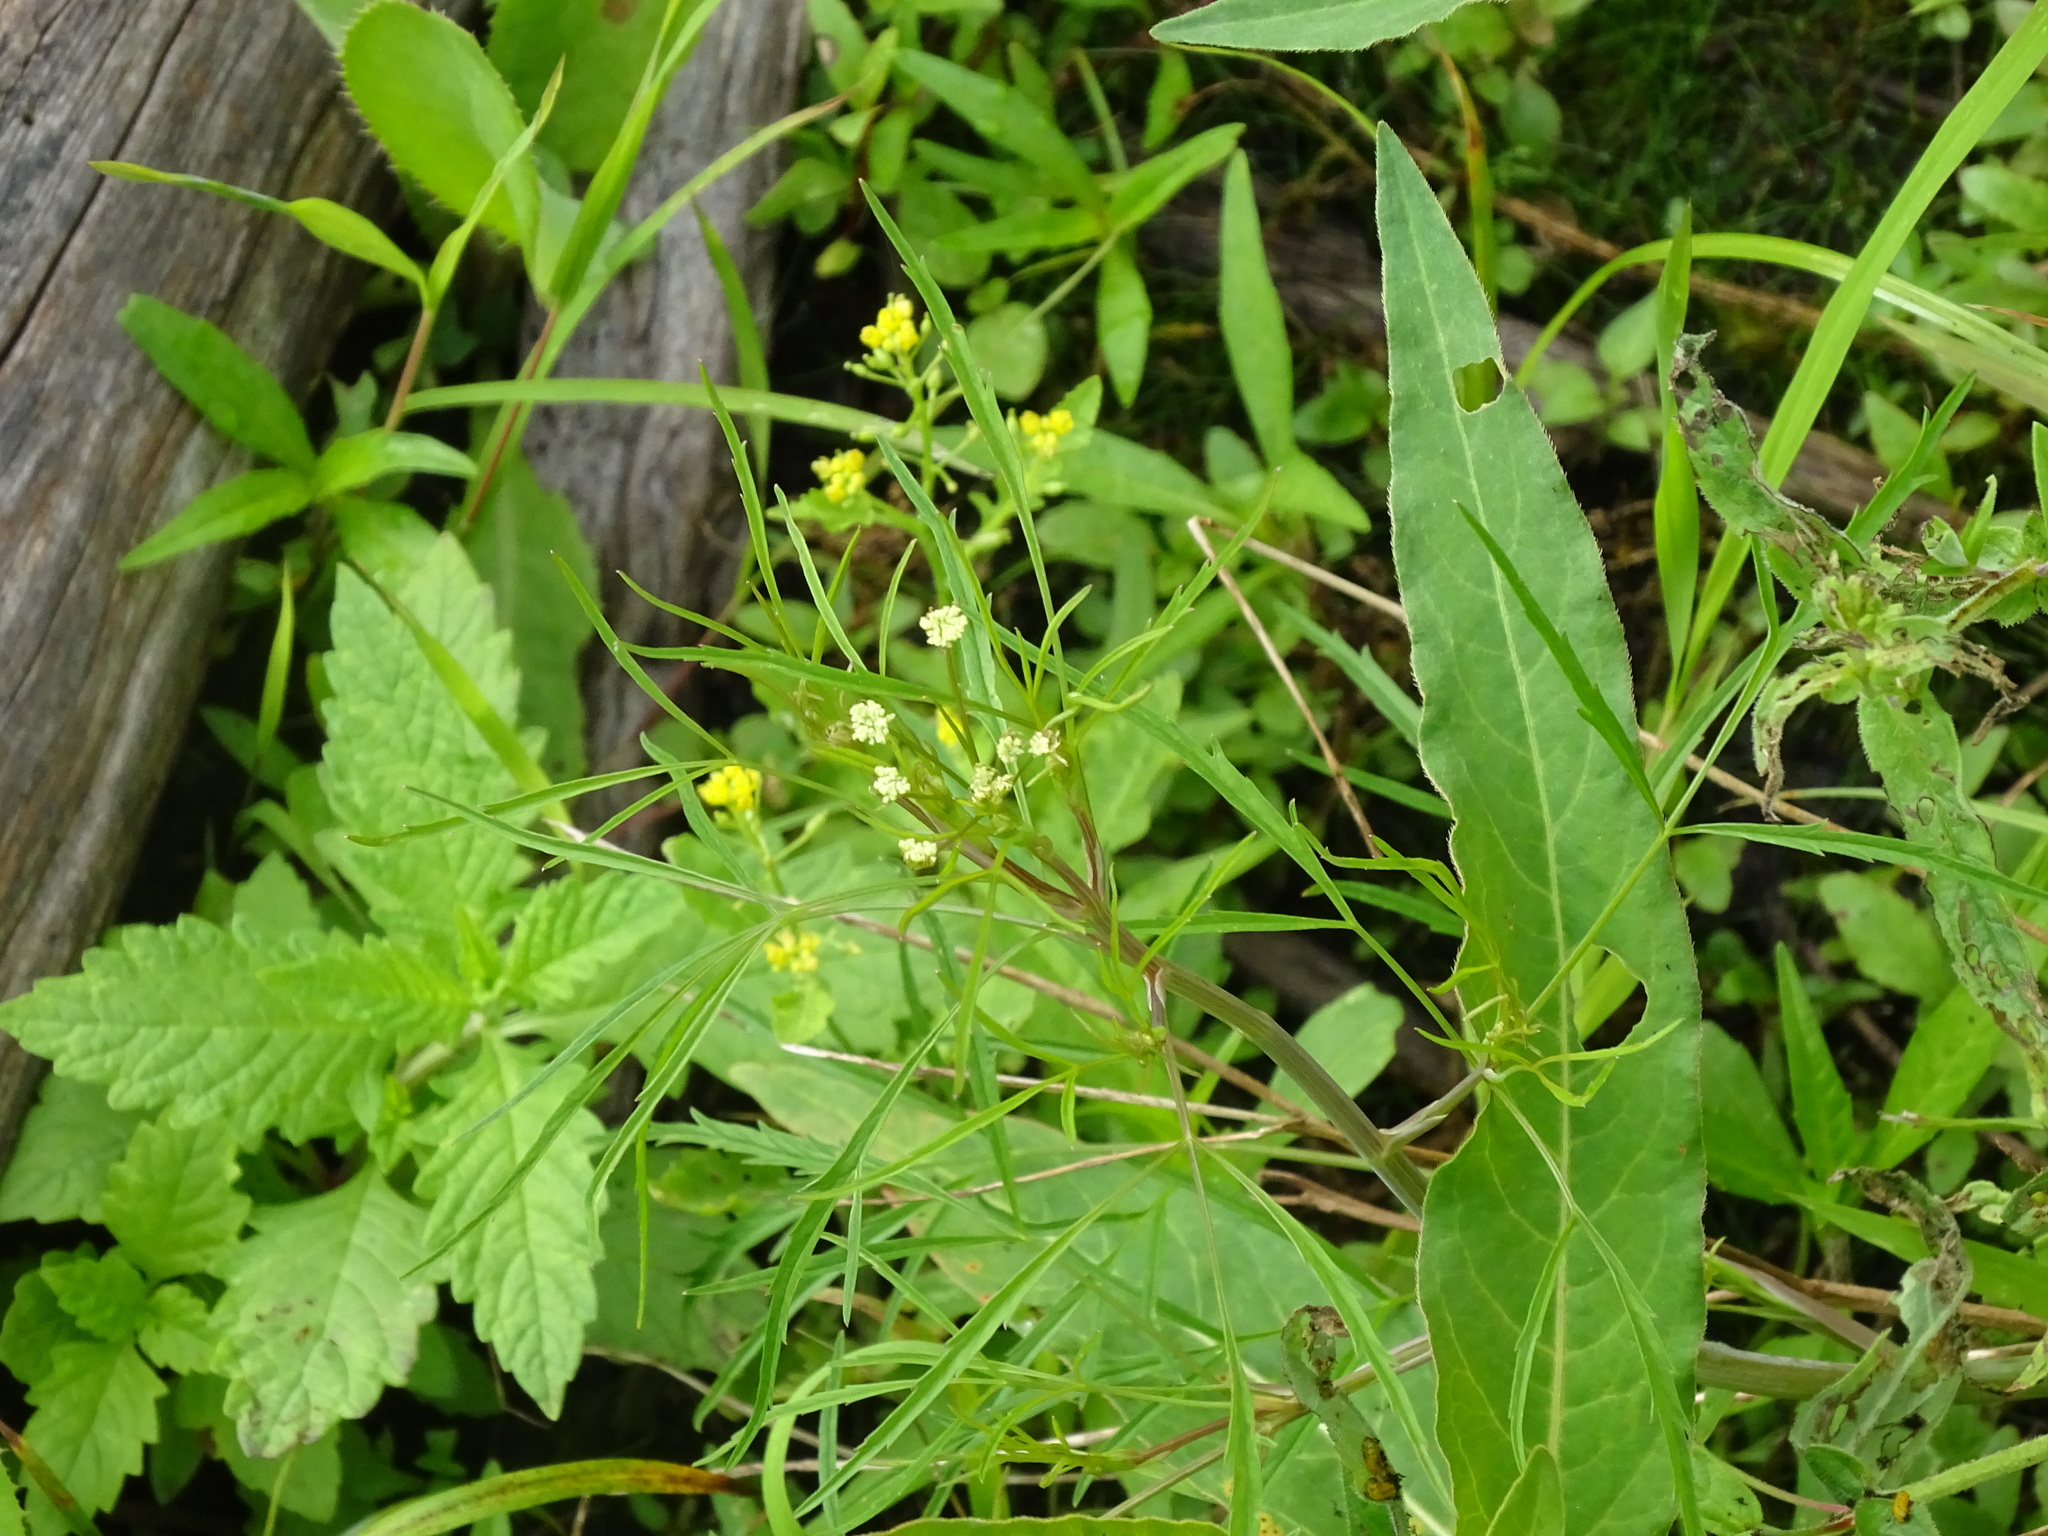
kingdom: Plantae
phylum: Tracheophyta
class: Magnoliopsida
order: Apiales
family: Apiaceae
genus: Cicuta
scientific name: Cicuta bulbifera
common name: Bulb-bearing water-hemlock
